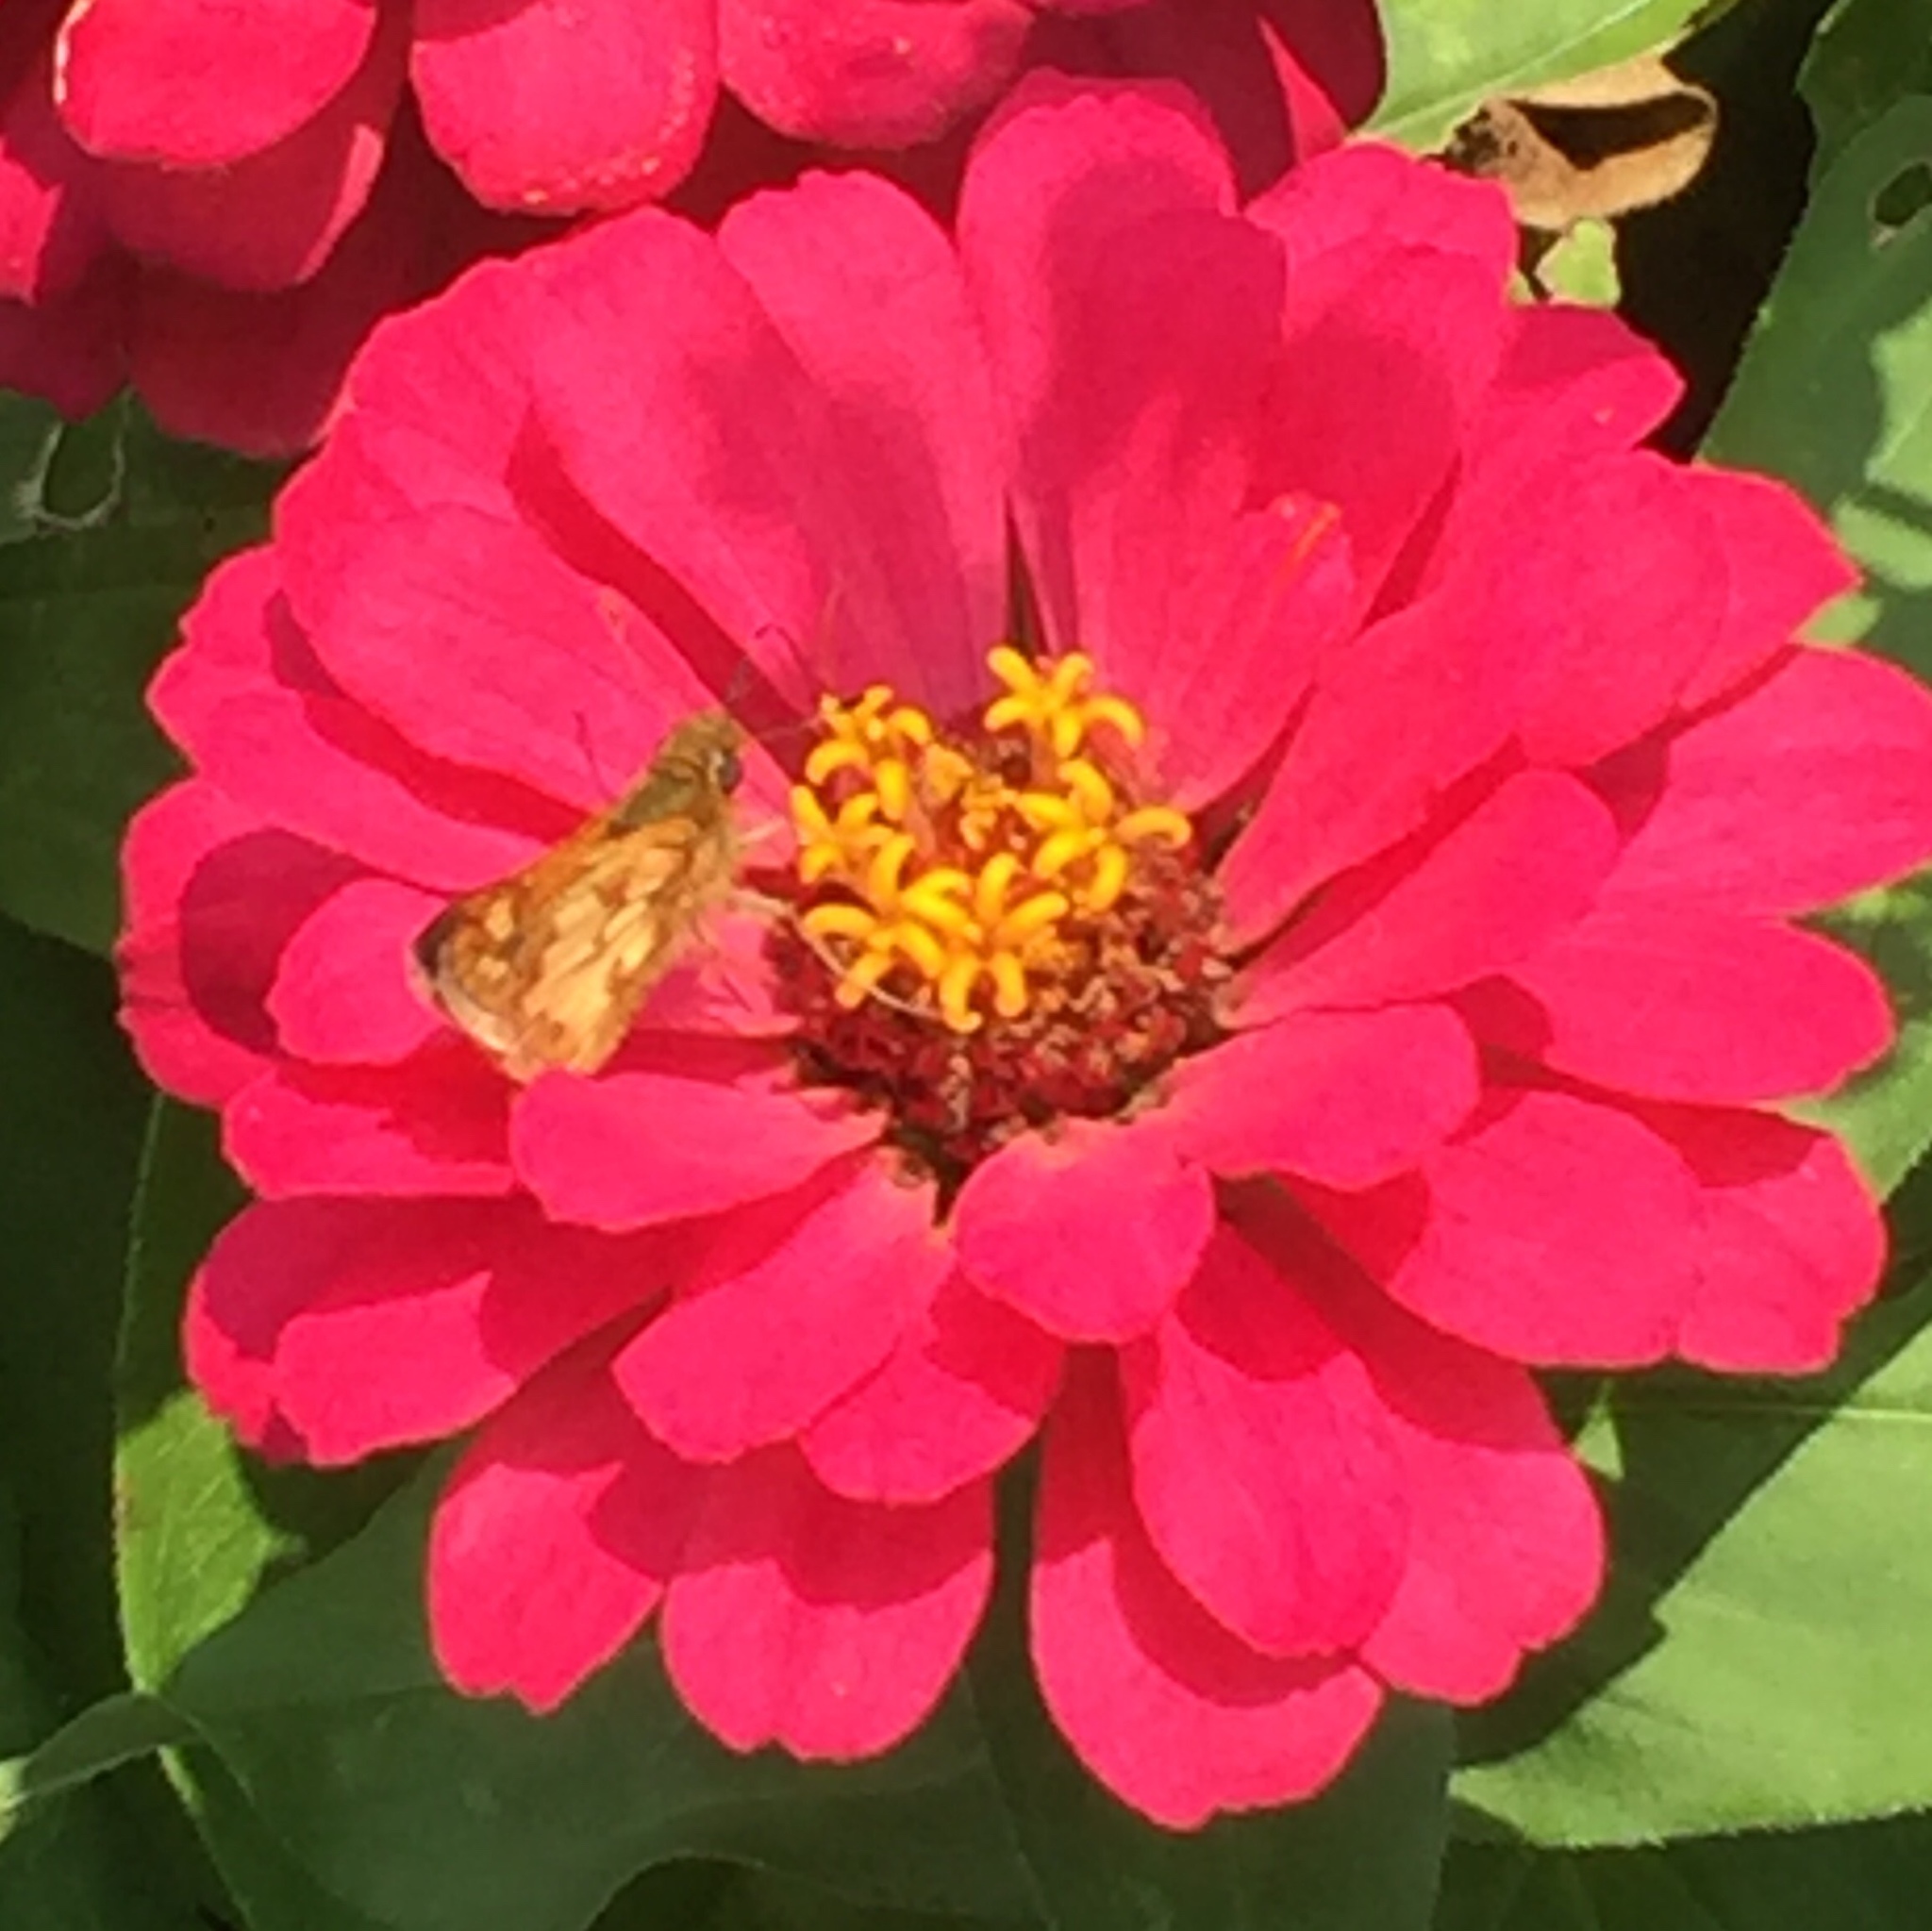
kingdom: Animalia
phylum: Arthropoda
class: Insecta
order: Lepidoptera
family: Hesperiidae
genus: Polites
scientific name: Polites coras
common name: Peck's skipper
